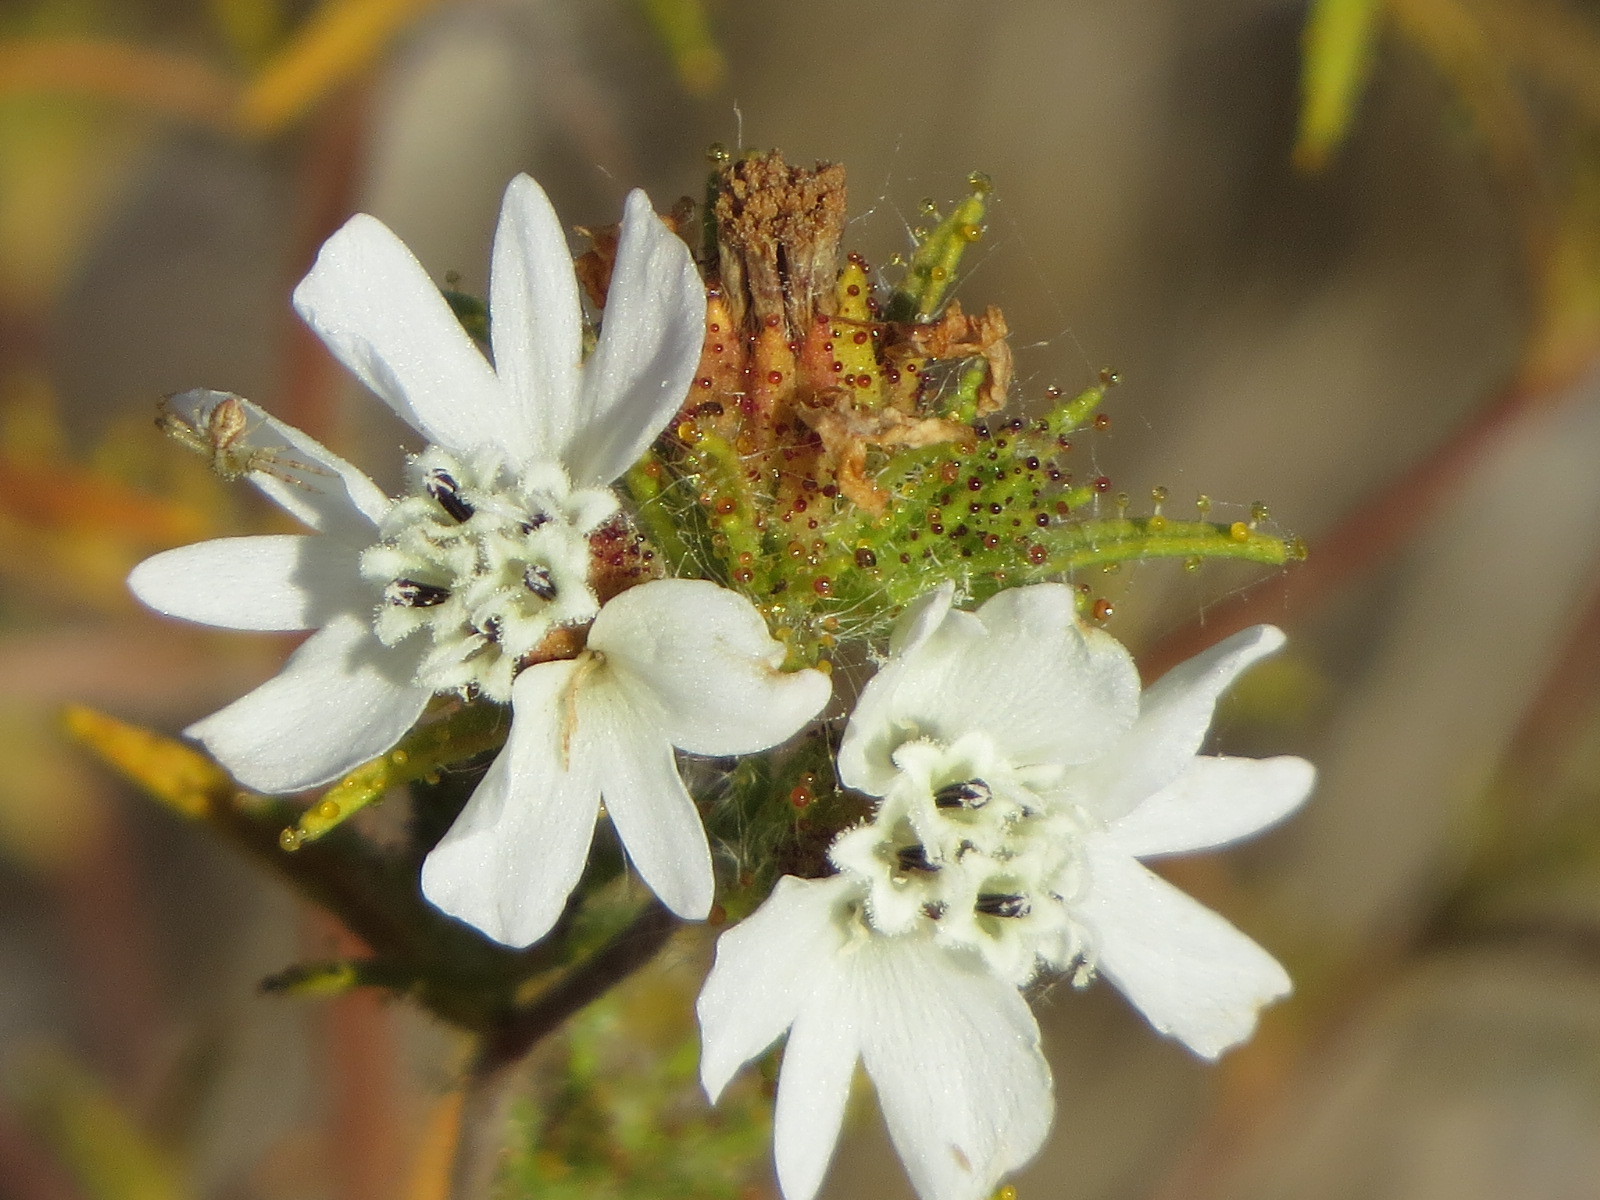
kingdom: Plantae
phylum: Tracheophyta
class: Magnoliopsida
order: Asterales
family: Asteraceae
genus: Calycadenia
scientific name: Calycadenia multiglandulosa
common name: Sticky calycadenia
